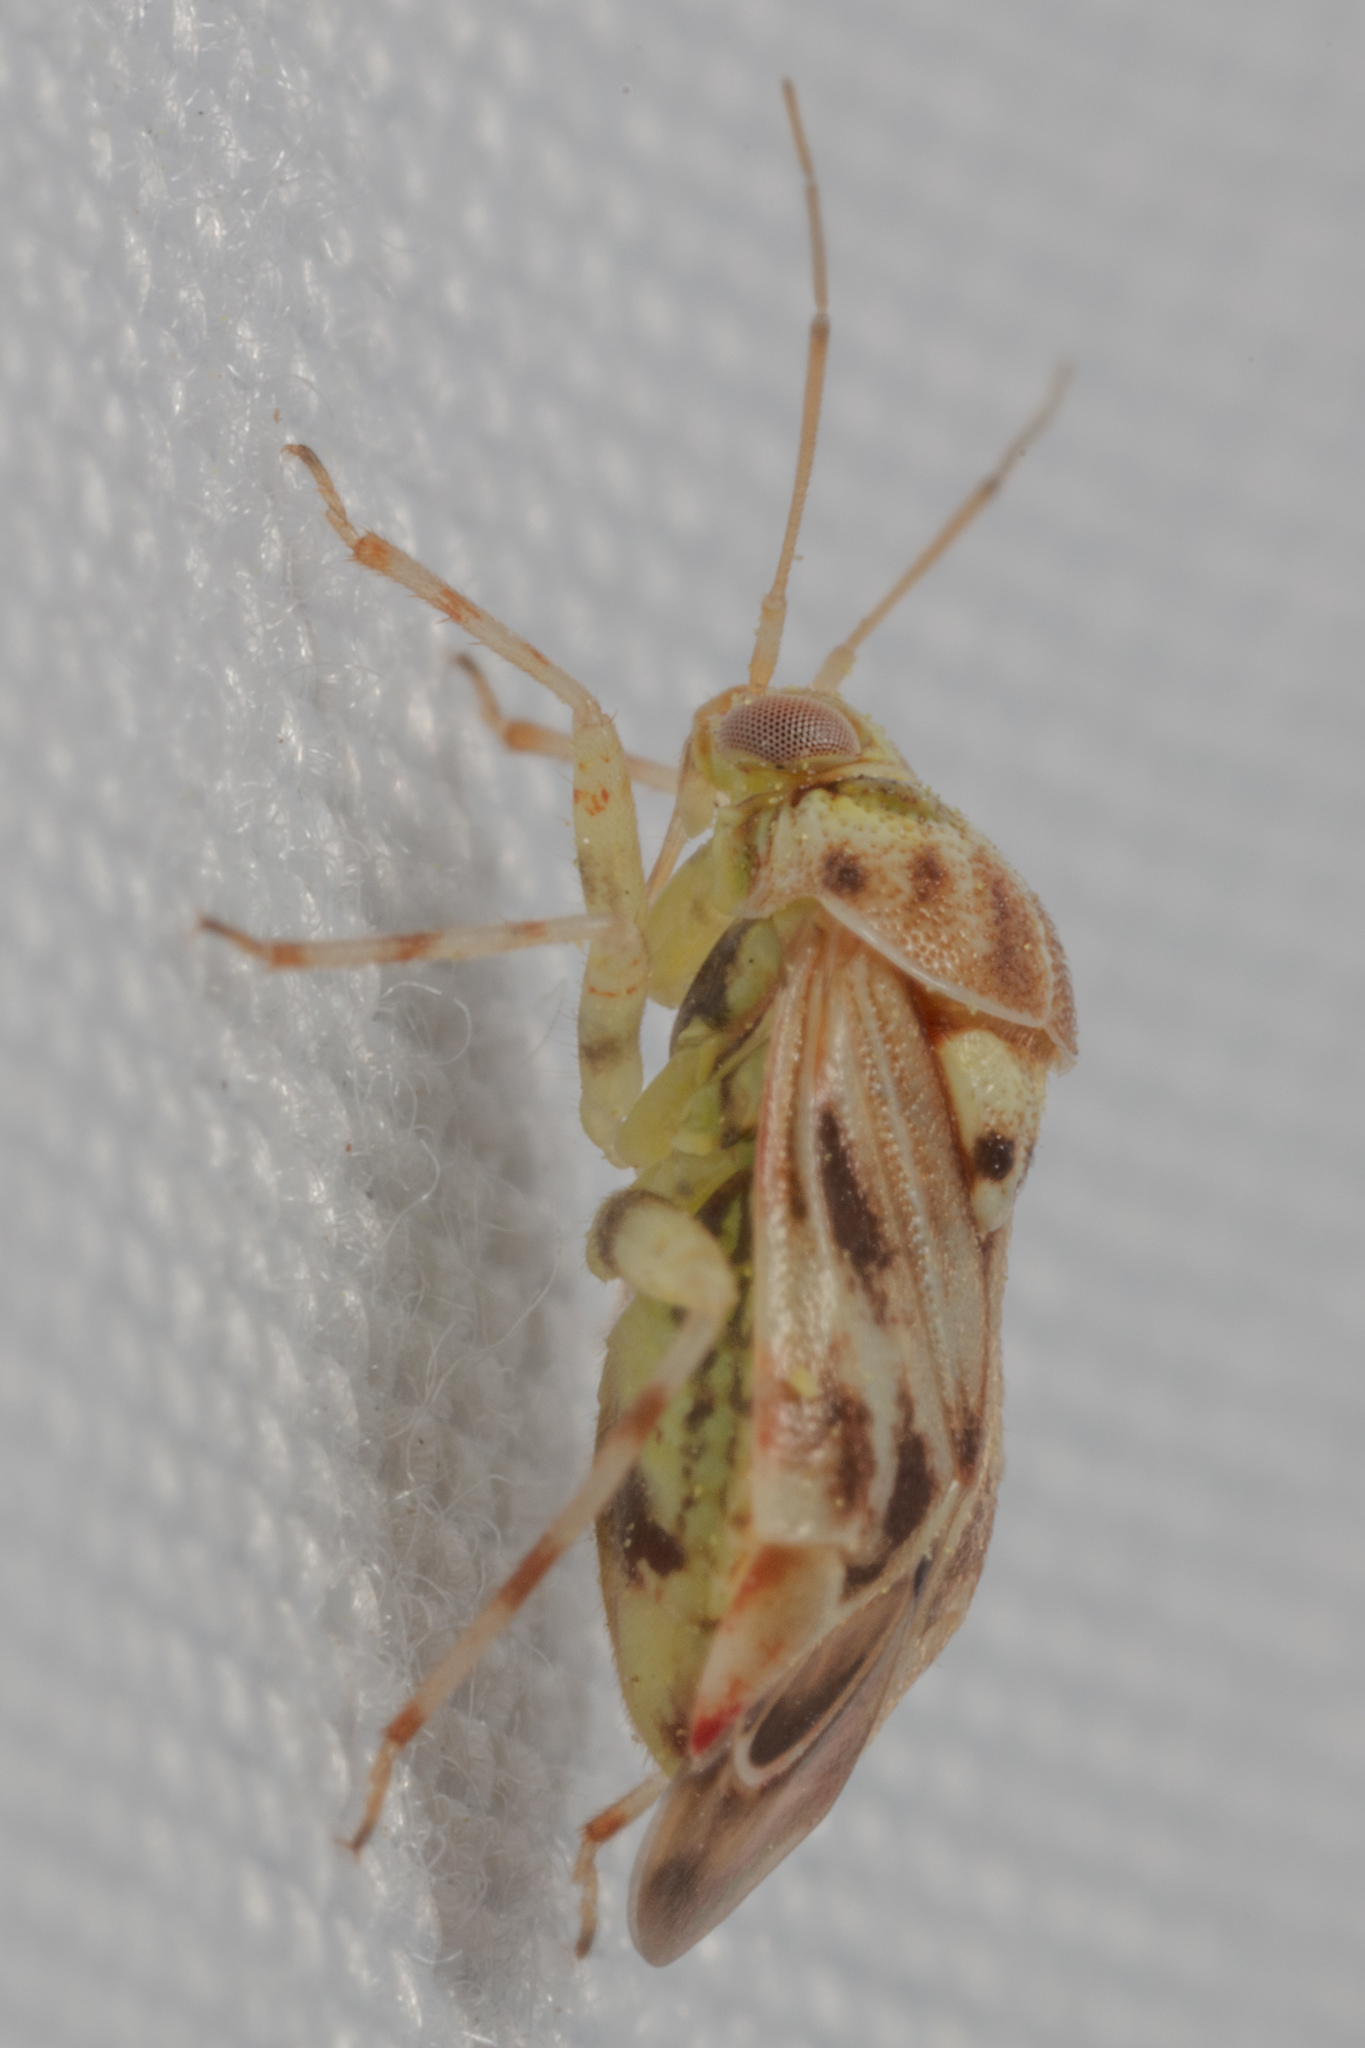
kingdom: Animalia
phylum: Arthropoda
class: Insecta
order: Hemiptera
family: Miridae
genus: Tropidosteptes
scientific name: Tropidosteptes quercicola
